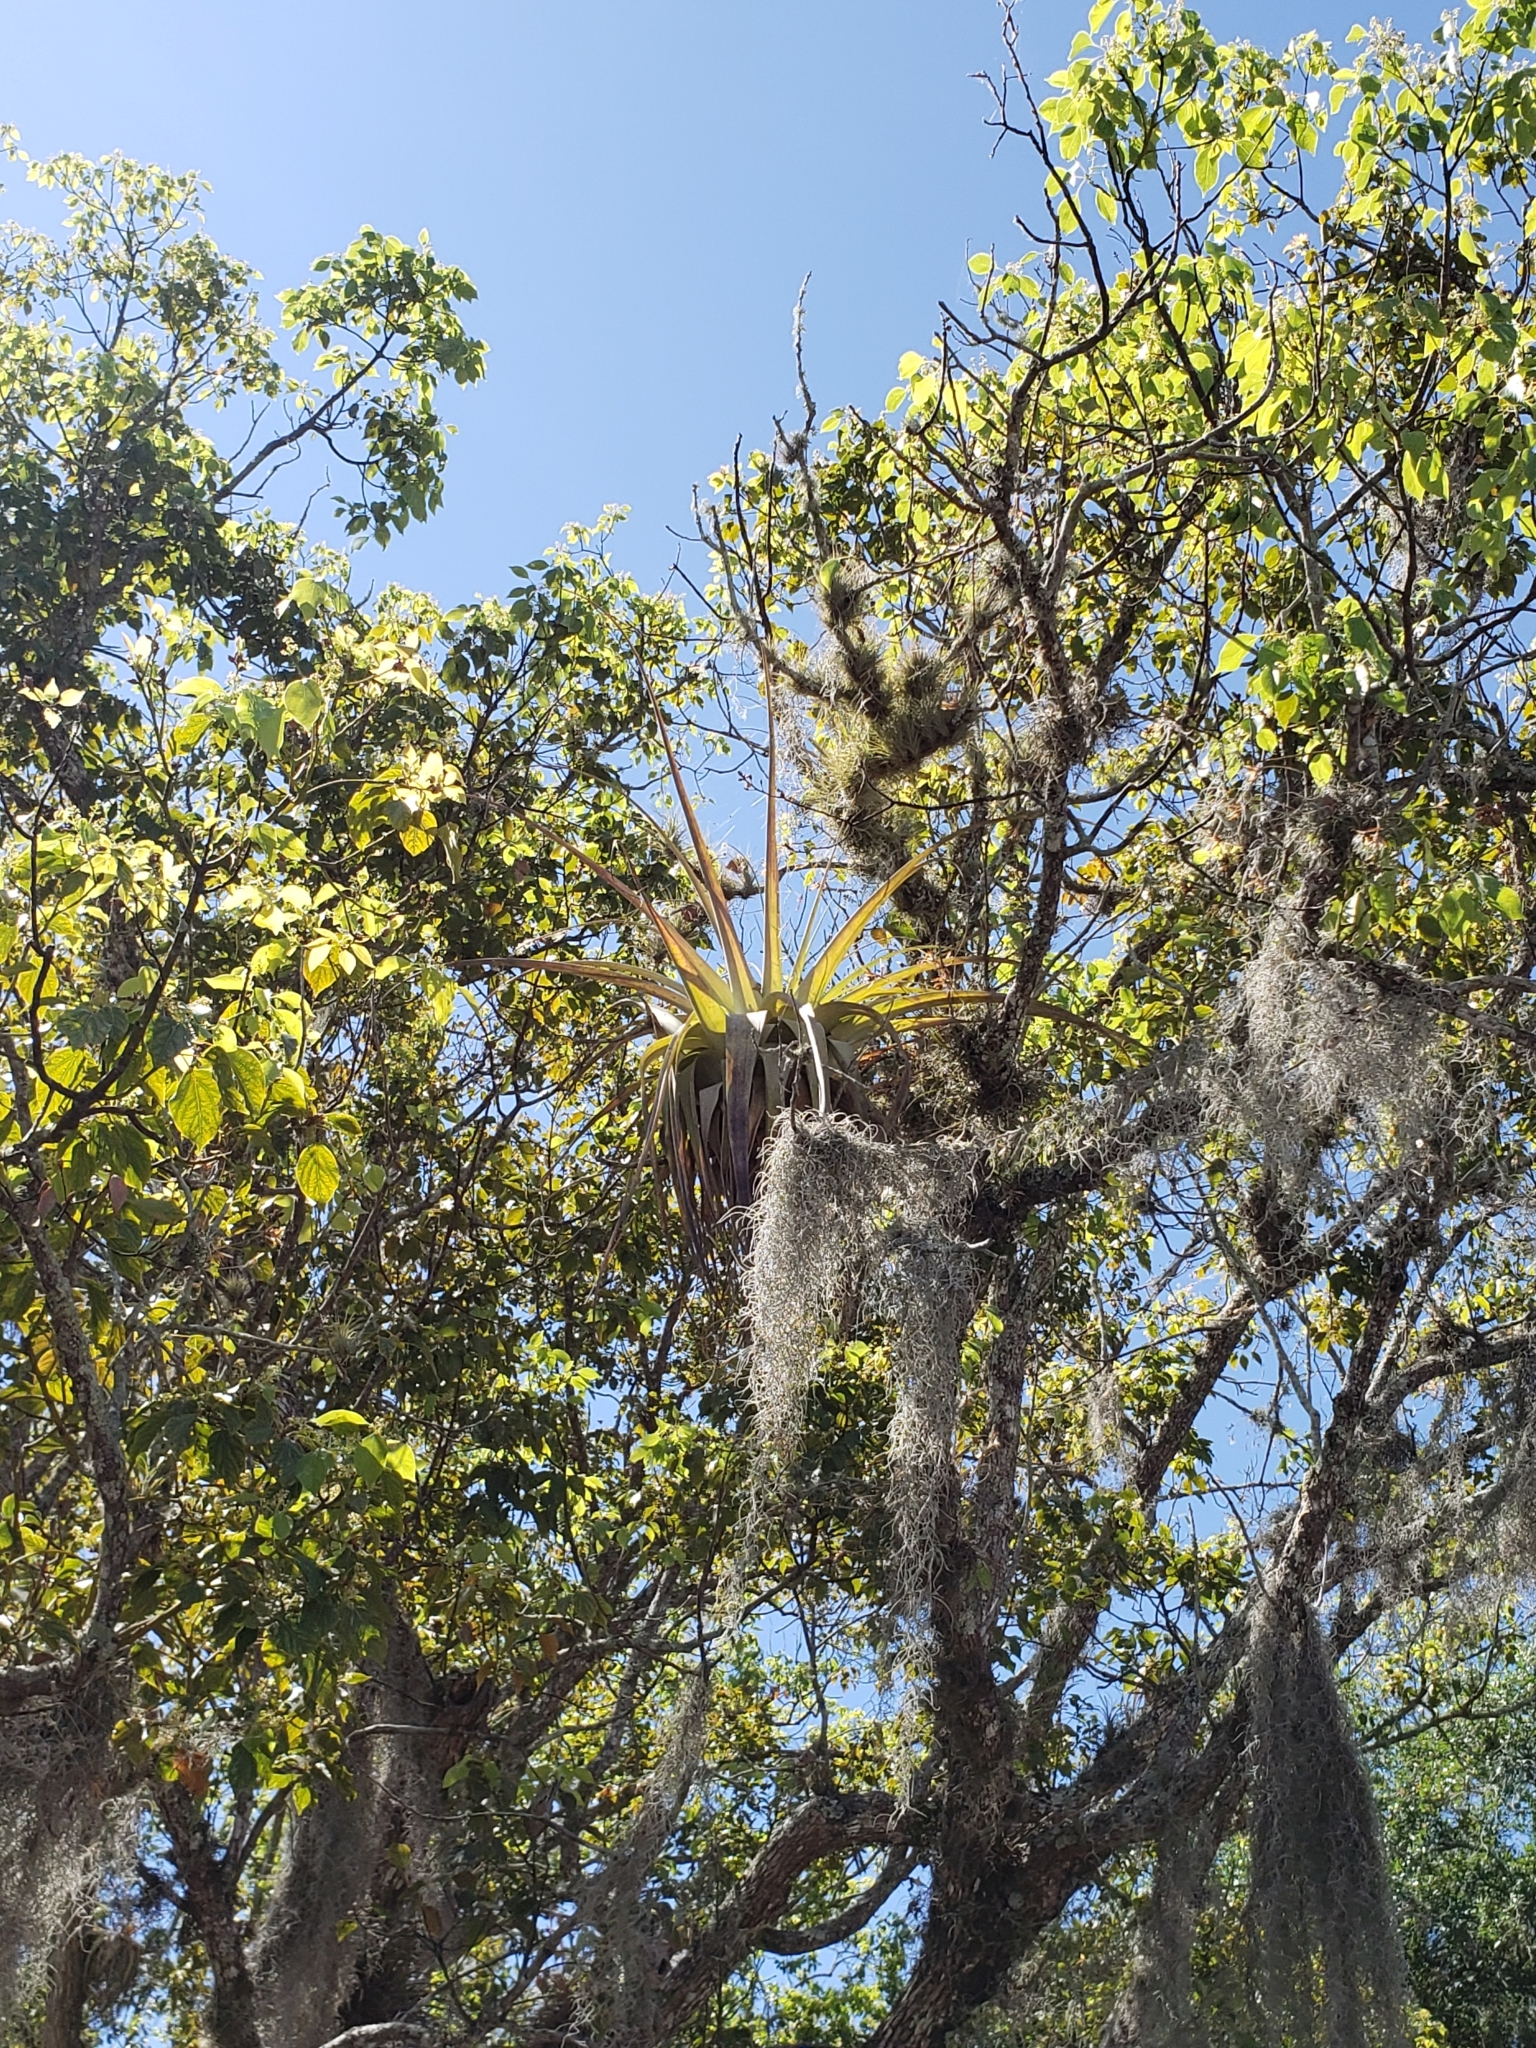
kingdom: Plantae
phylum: Tracheophyta
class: Liliopsida
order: Poales
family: Bromeliaceae
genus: Tillandsia
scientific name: Tillandsia utriculata
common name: Wild pine
